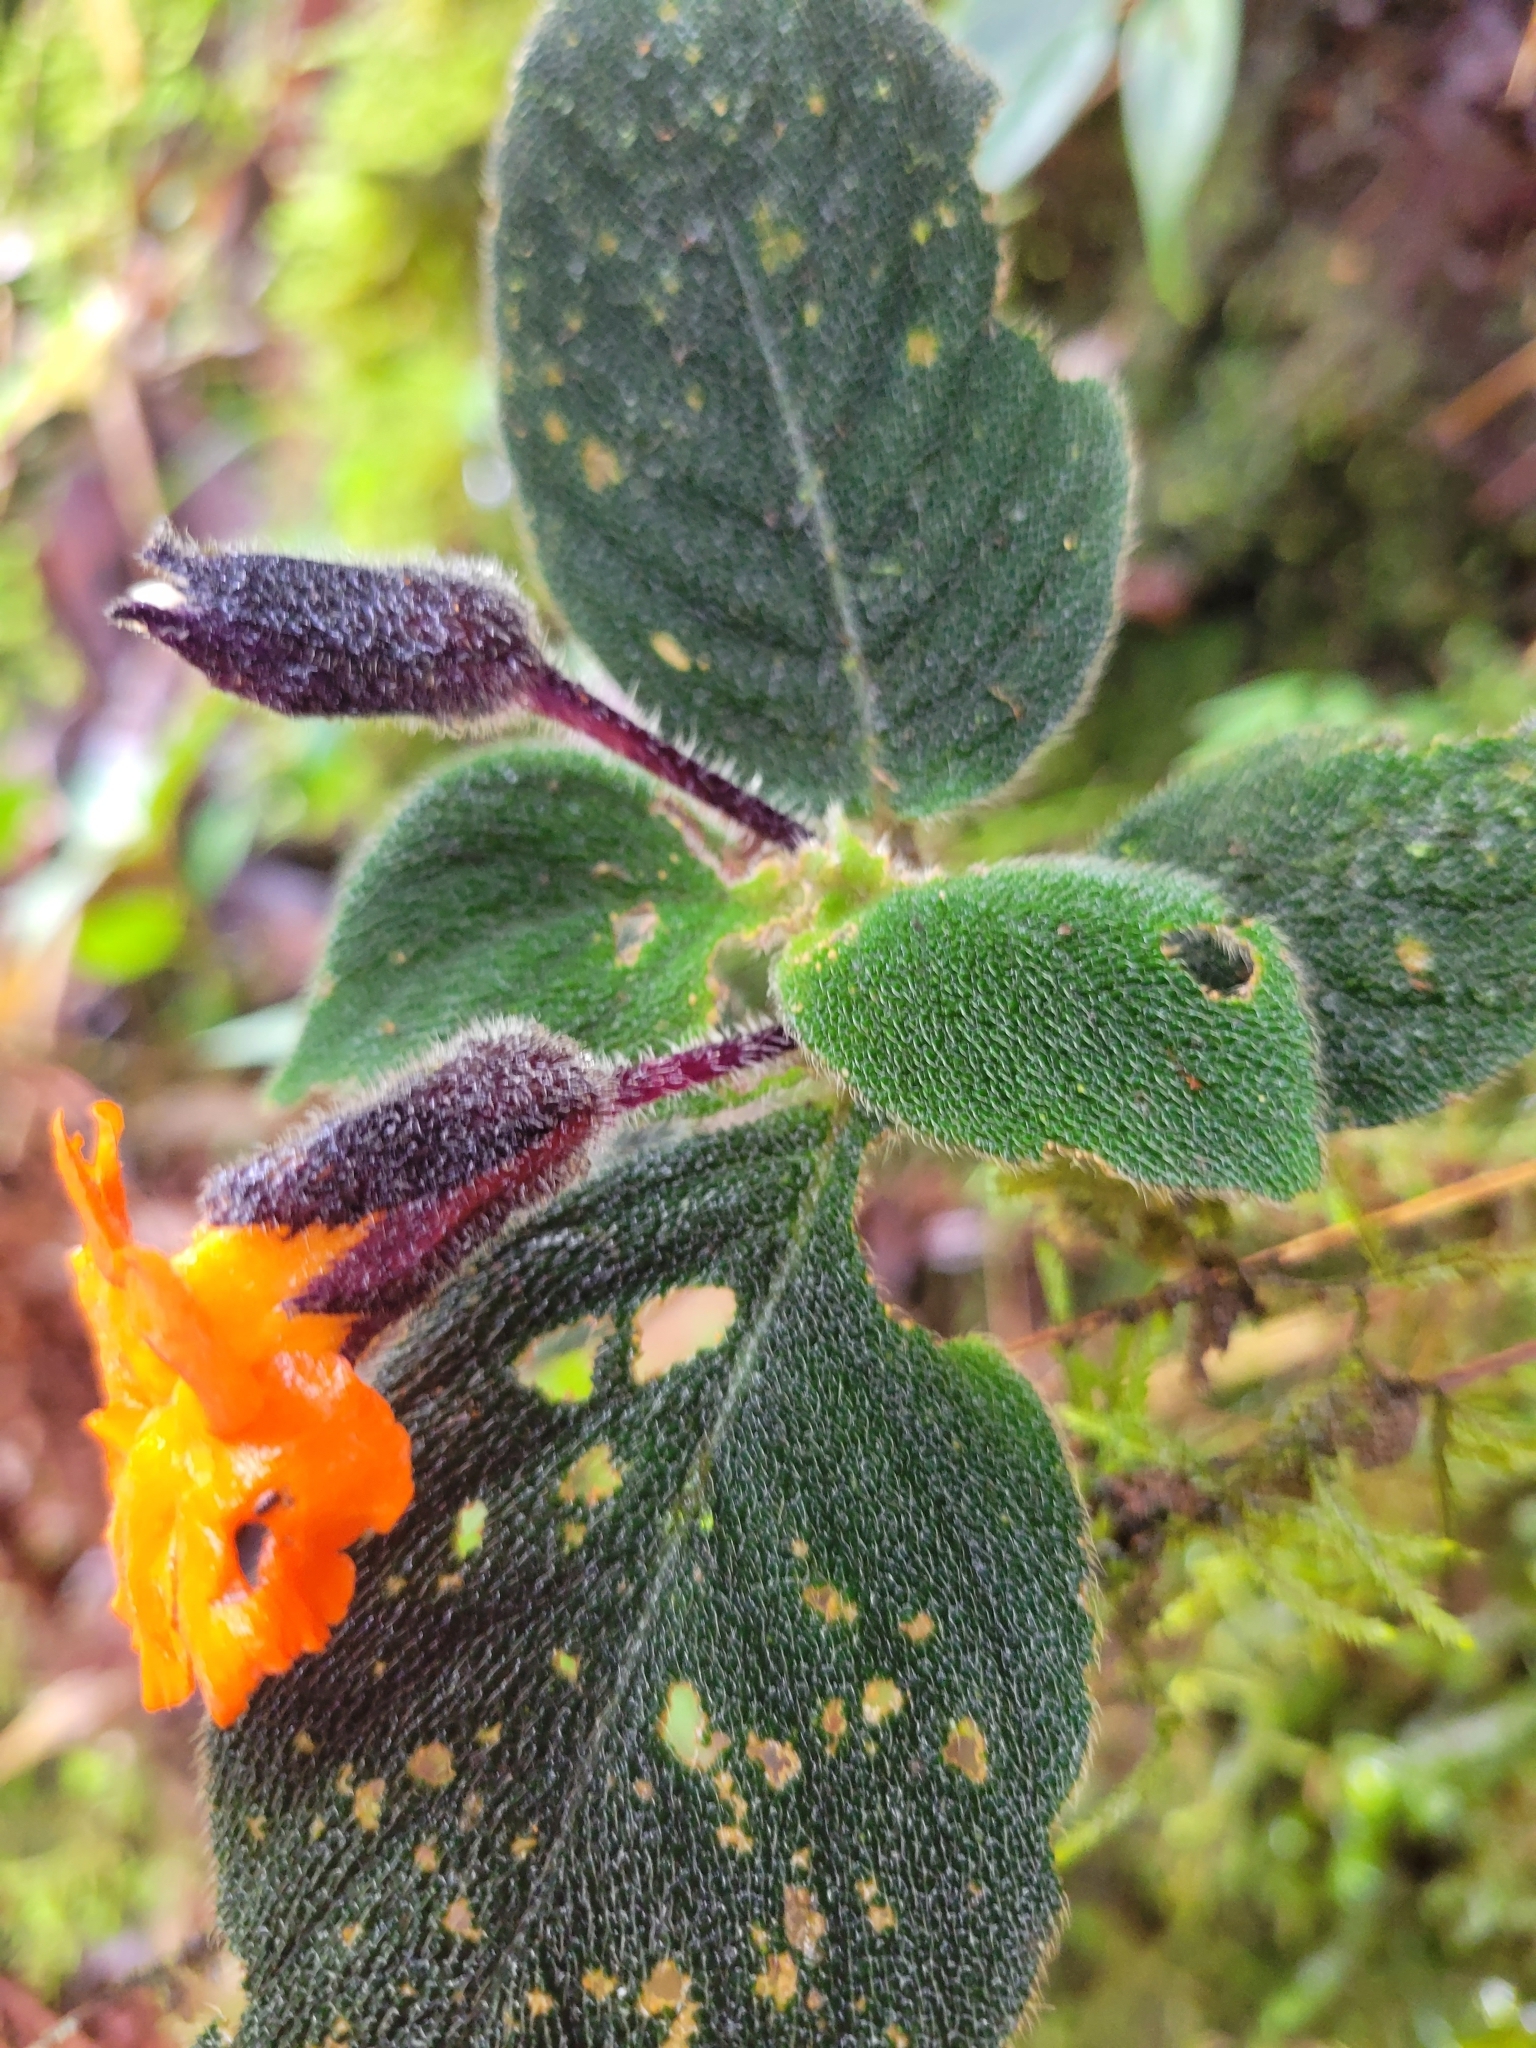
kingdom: Plantae
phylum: Tracheophyta
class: Magnoliopsida
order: Lamiales
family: Gesneriaceae
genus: Besleria
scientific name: Besleria princeps
